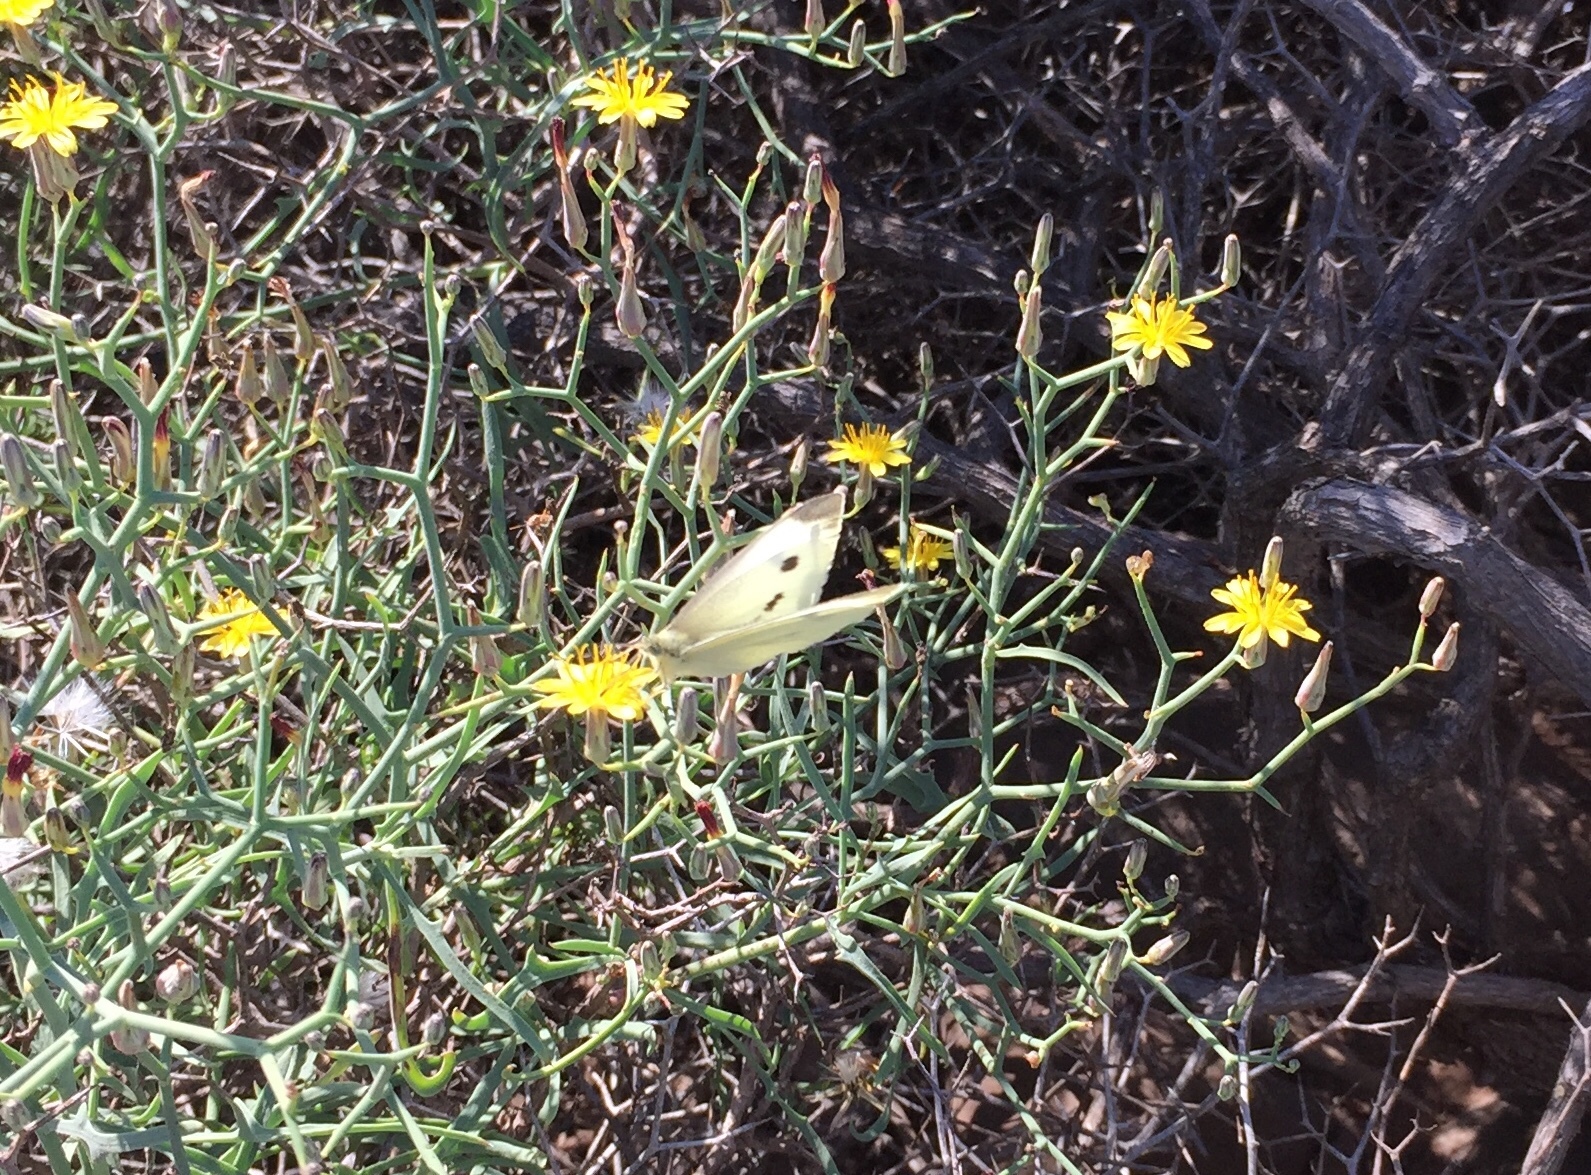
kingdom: Animalia
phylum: Arthropoda
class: Insecta
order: Lepidoptera
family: Pieridae
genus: Pieris
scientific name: Pieris rapae
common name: Small white
